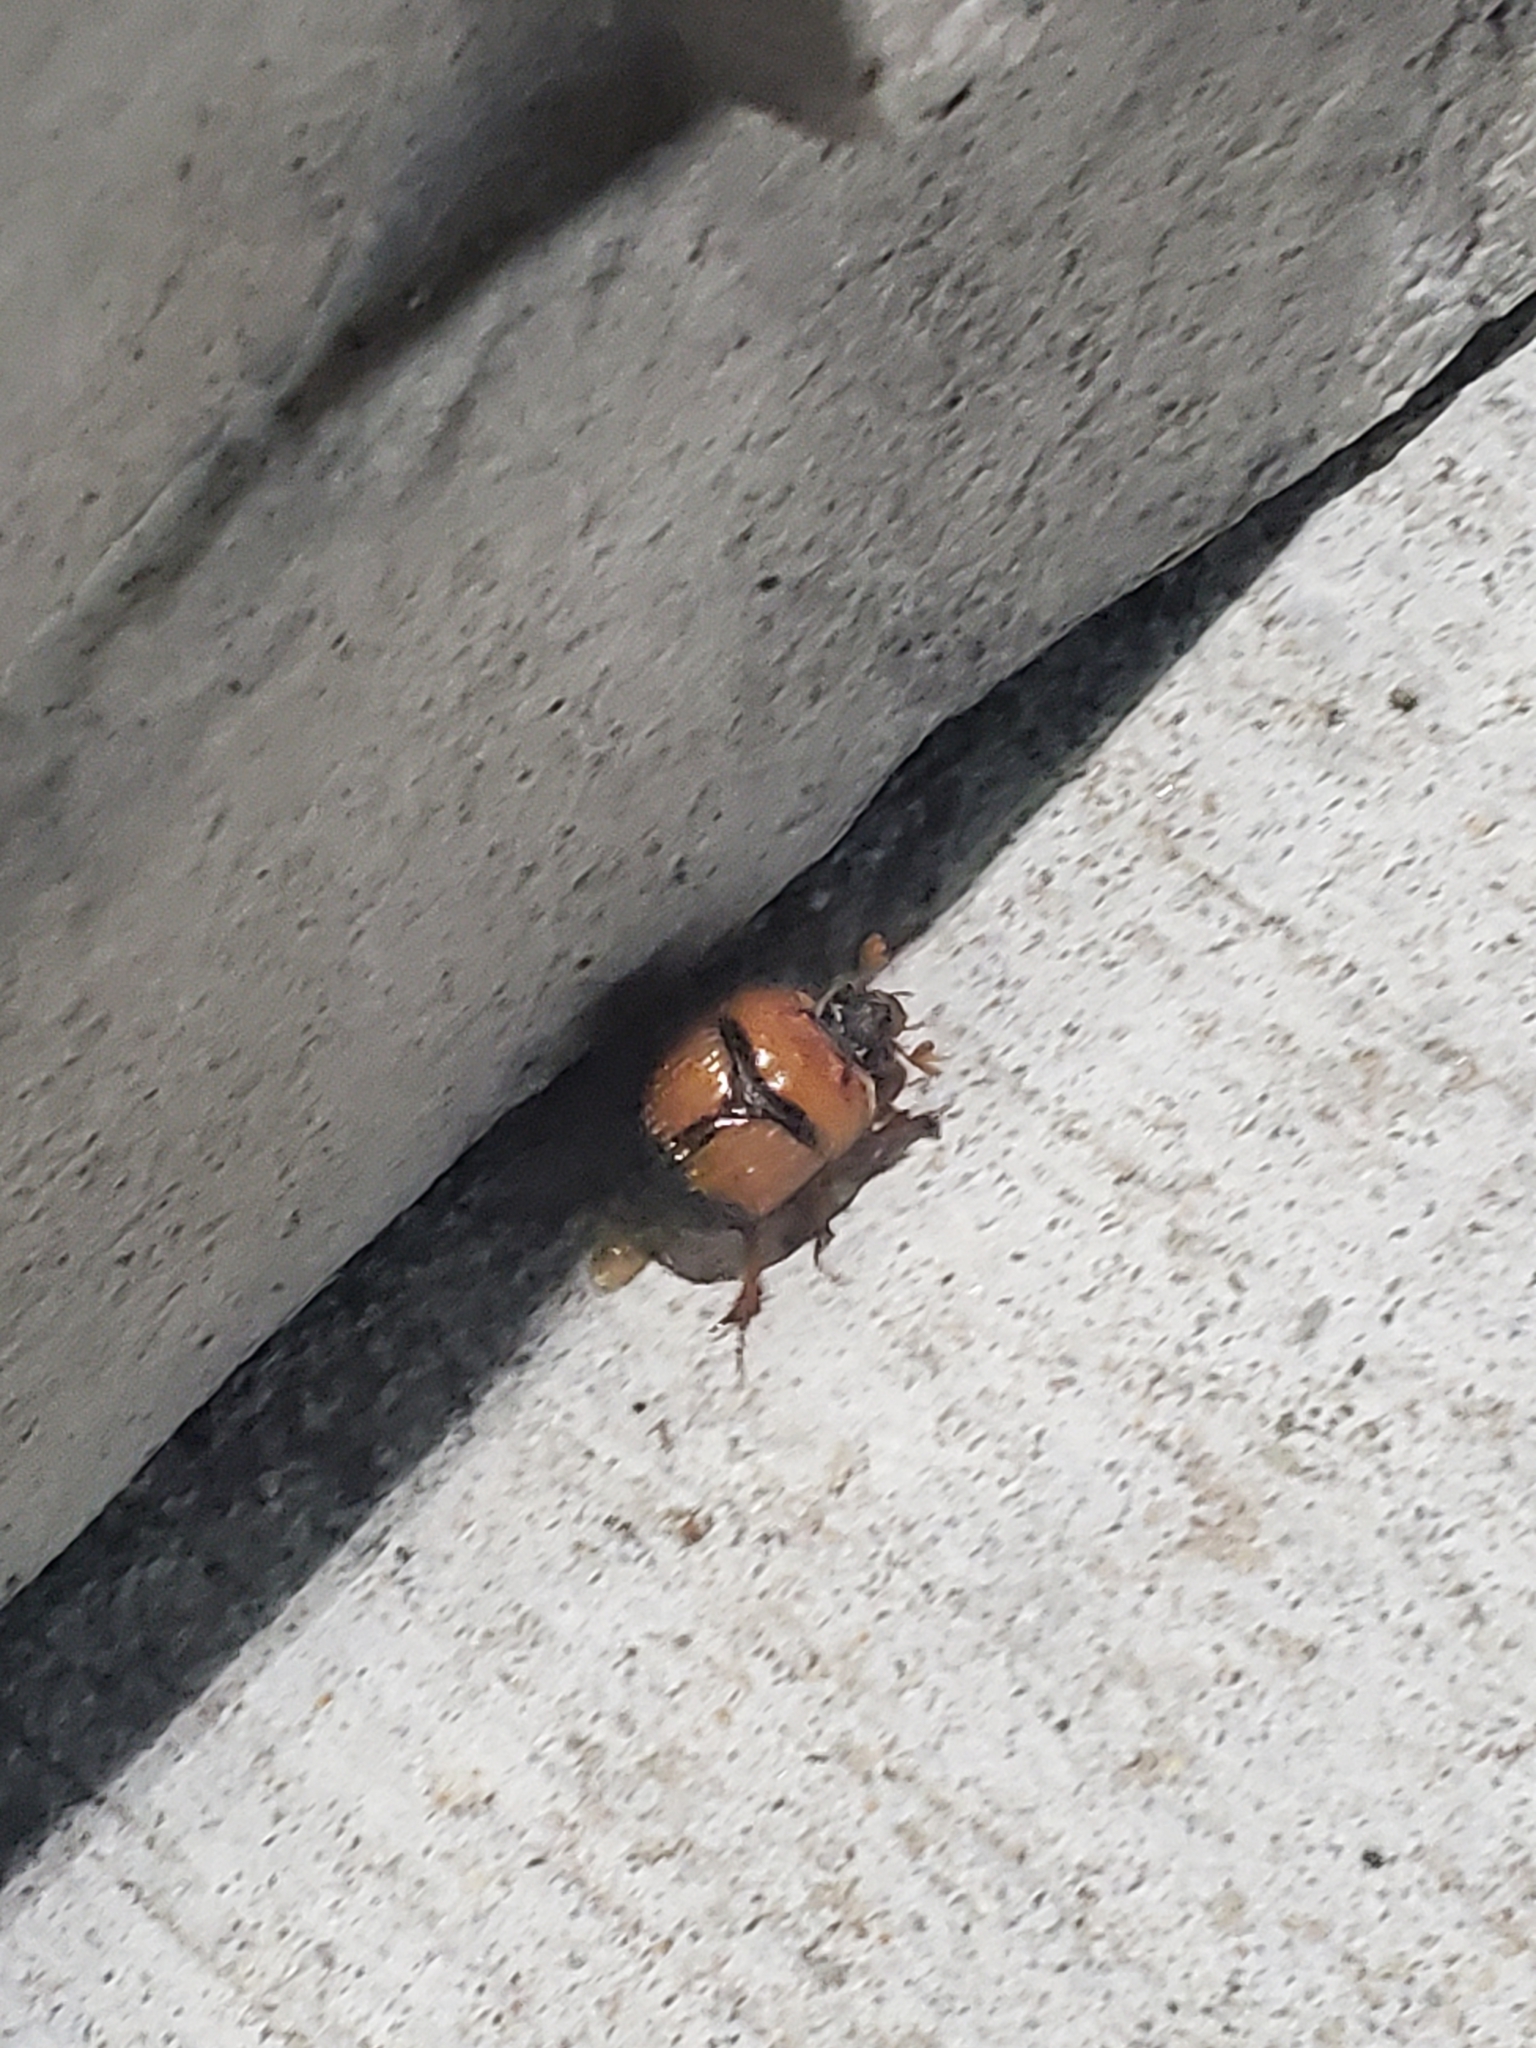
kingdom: Animalia
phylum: Arthropoda
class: Insecta
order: Coleoptera
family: Geotrupidae
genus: Bolbocerosoma
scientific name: Bolbocerosoma bruneri
